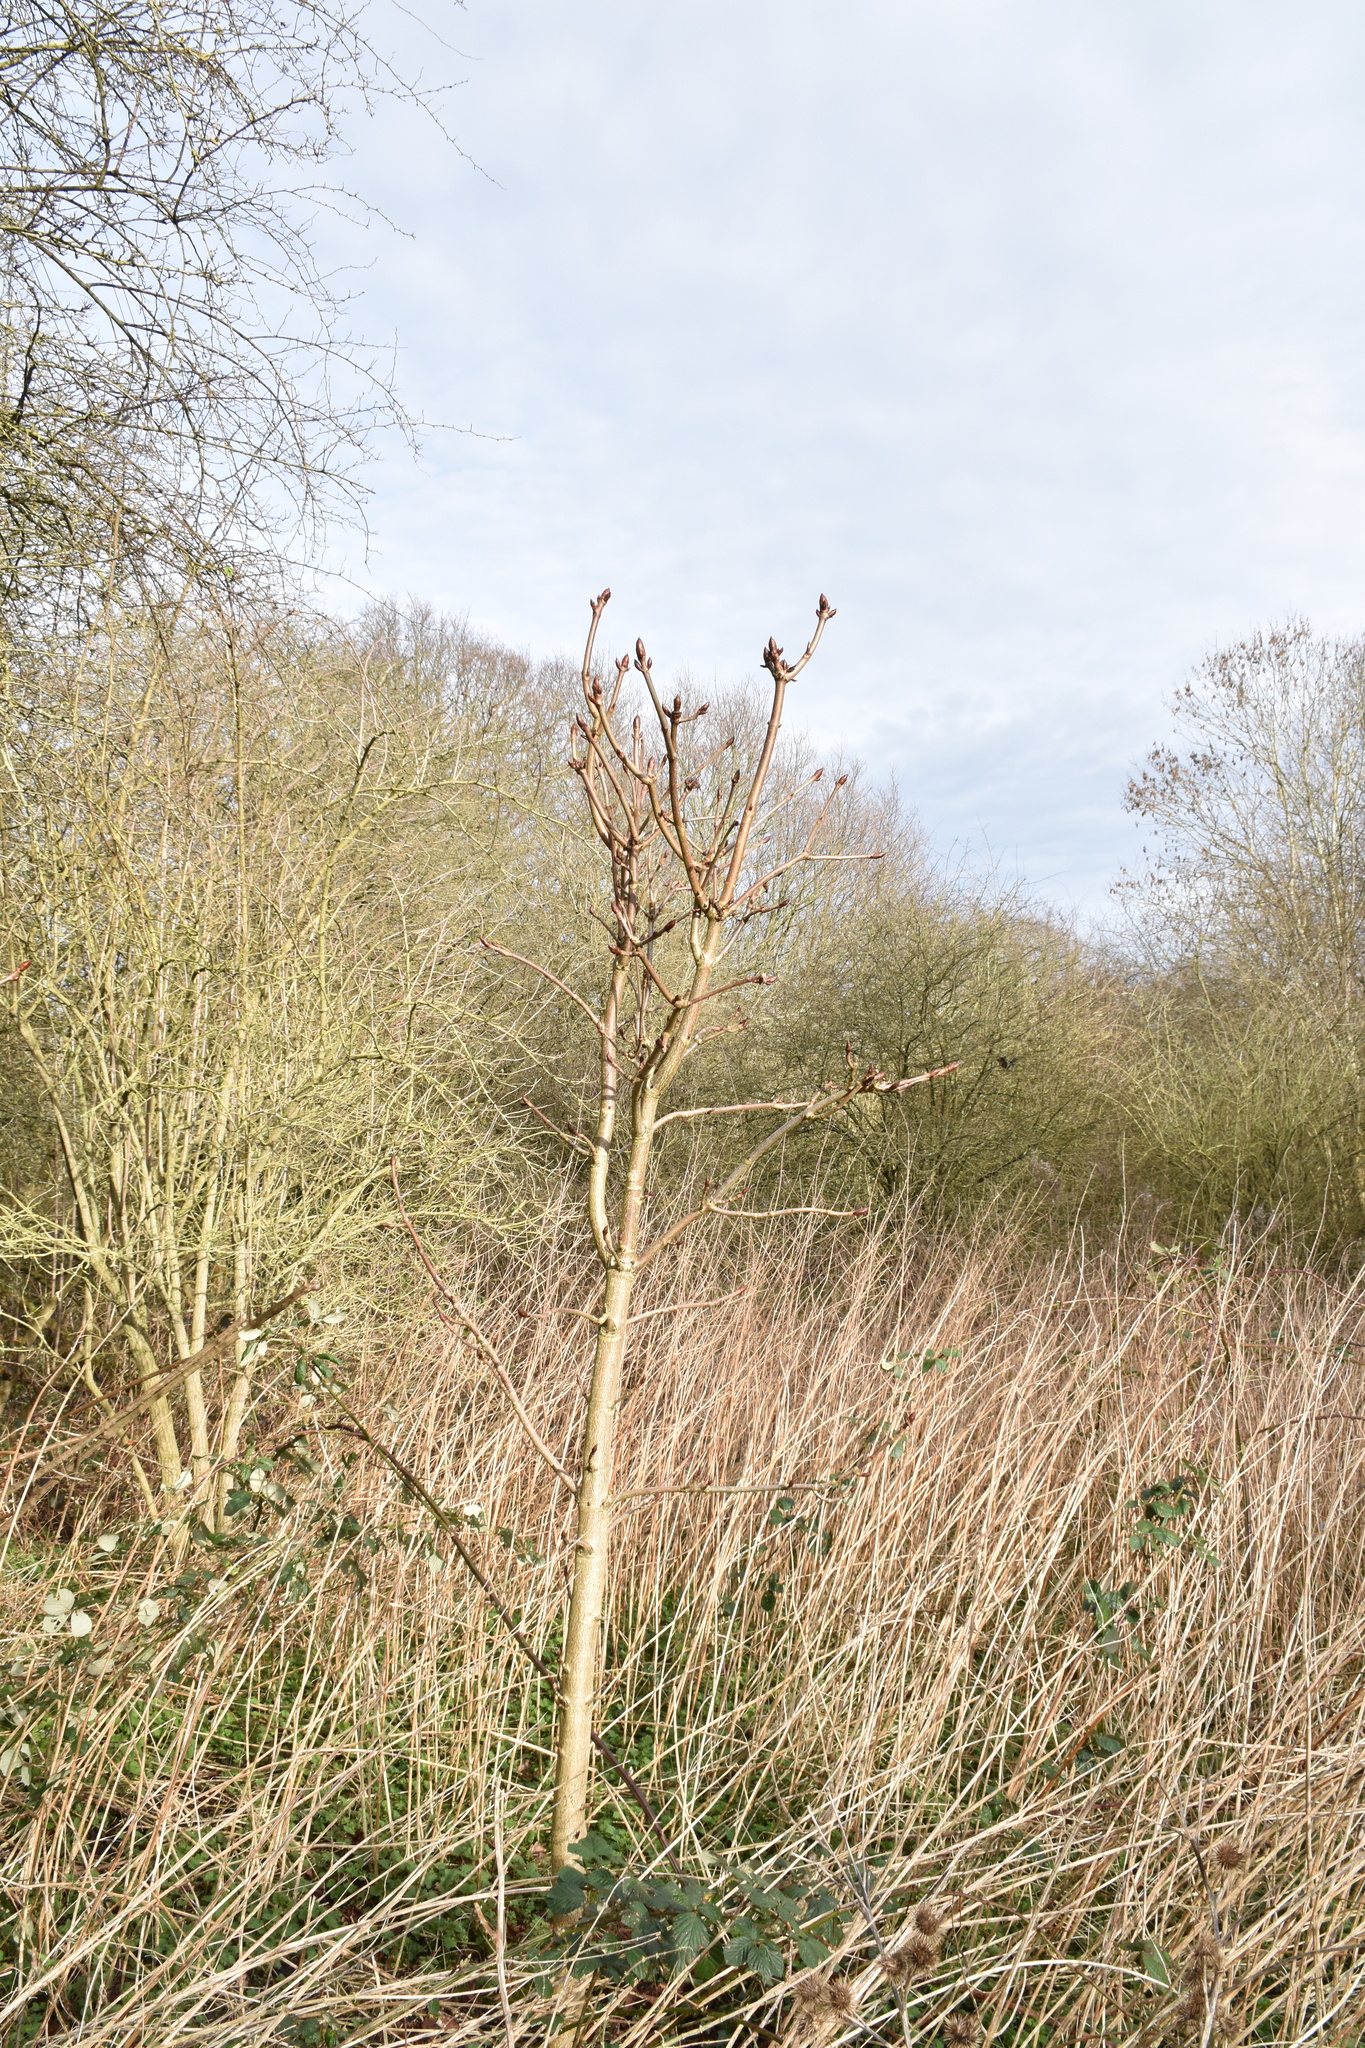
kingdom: Plantae
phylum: Tracheophyta
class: Magnoliopsida
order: Sapindales
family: Sapindaceae
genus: Aesculus
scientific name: Aesculus hippocastanum
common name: Horse-chestnut
